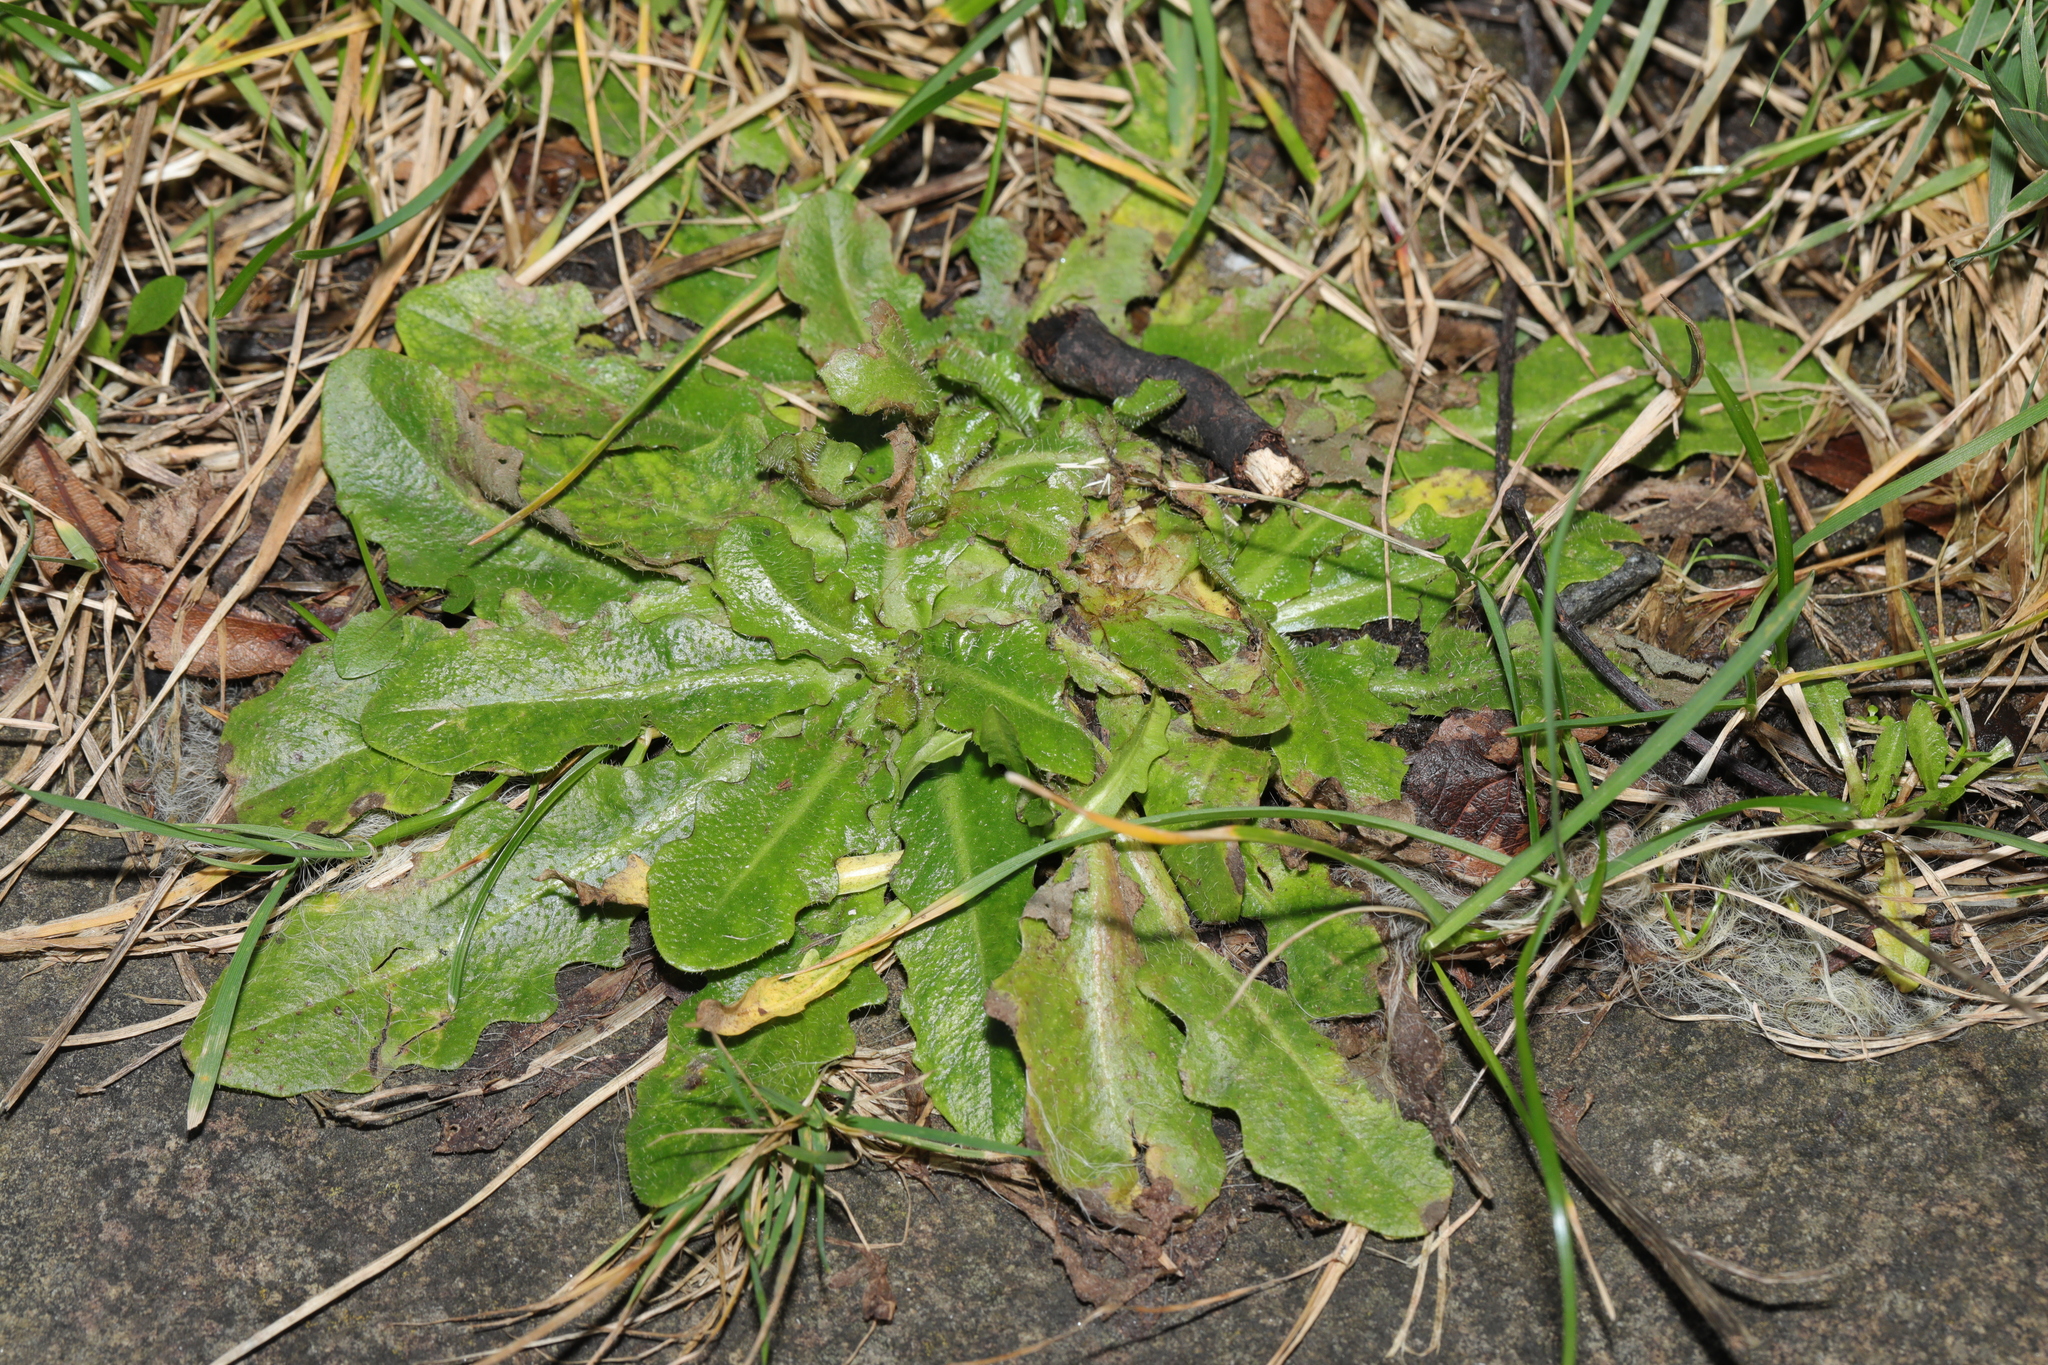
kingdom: Plantae
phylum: Tracheophyta
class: Magnoliopsida
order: Asterales
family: Asteraceae
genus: Hypochaeris
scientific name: Hypochaeris radicata
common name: Flatweed
